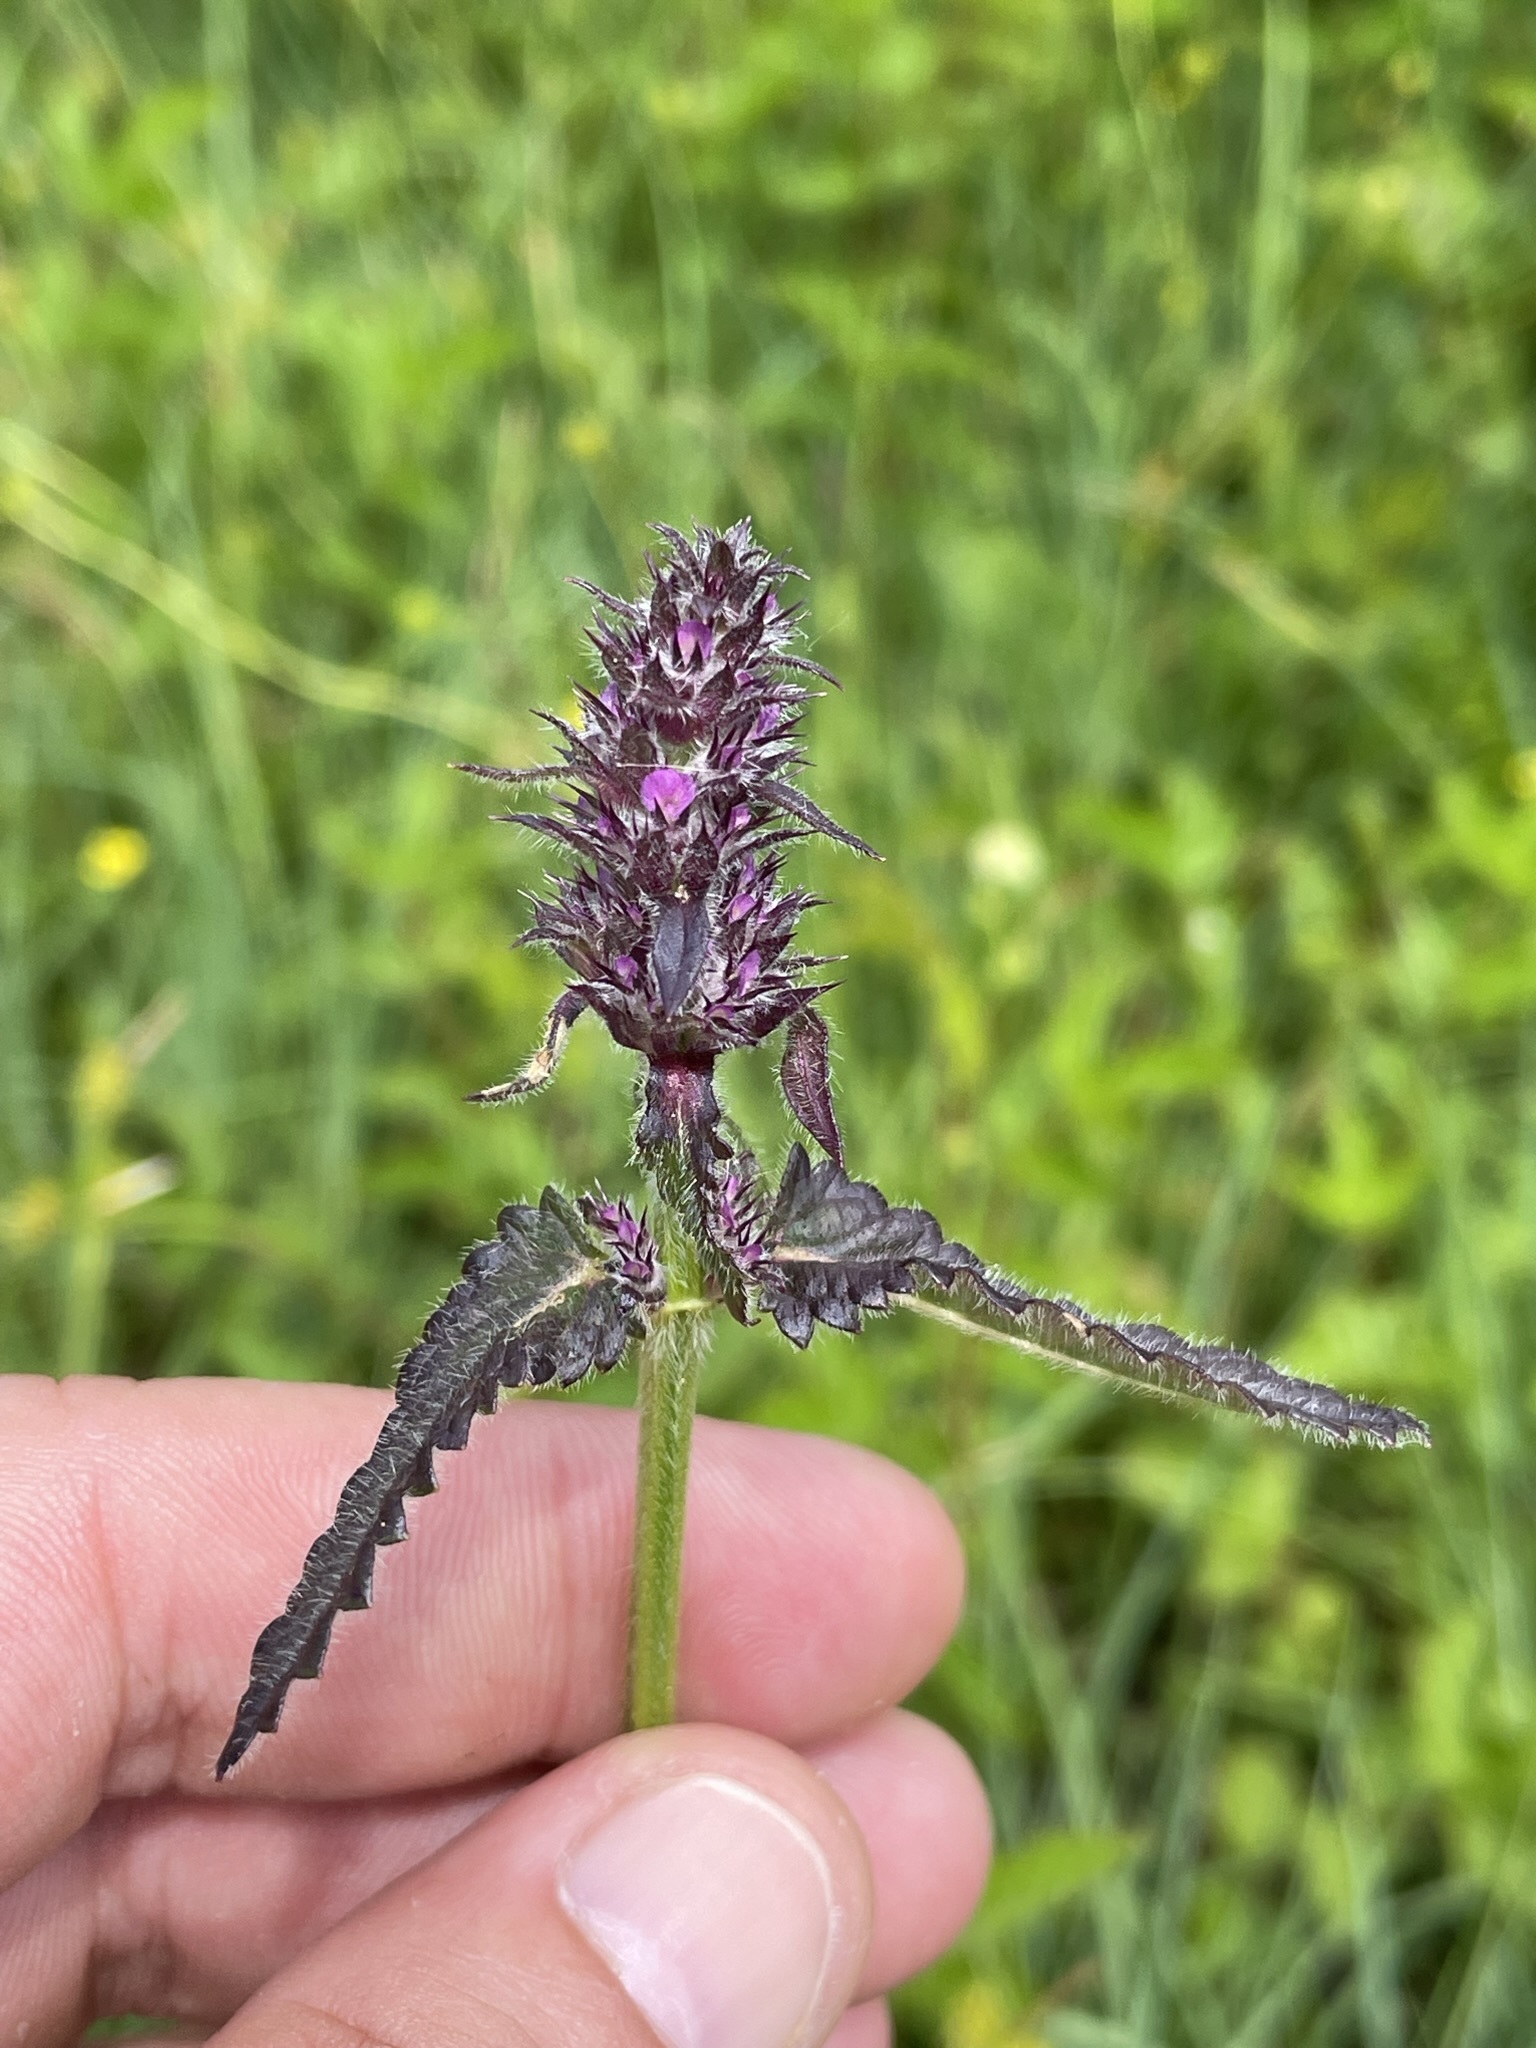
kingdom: Plantae
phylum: Tracheophyta
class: Magnoliopsida
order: Lamiales
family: Lamiaceae
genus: Betonica
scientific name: Betonica officinalis
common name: Bishop's-wort
